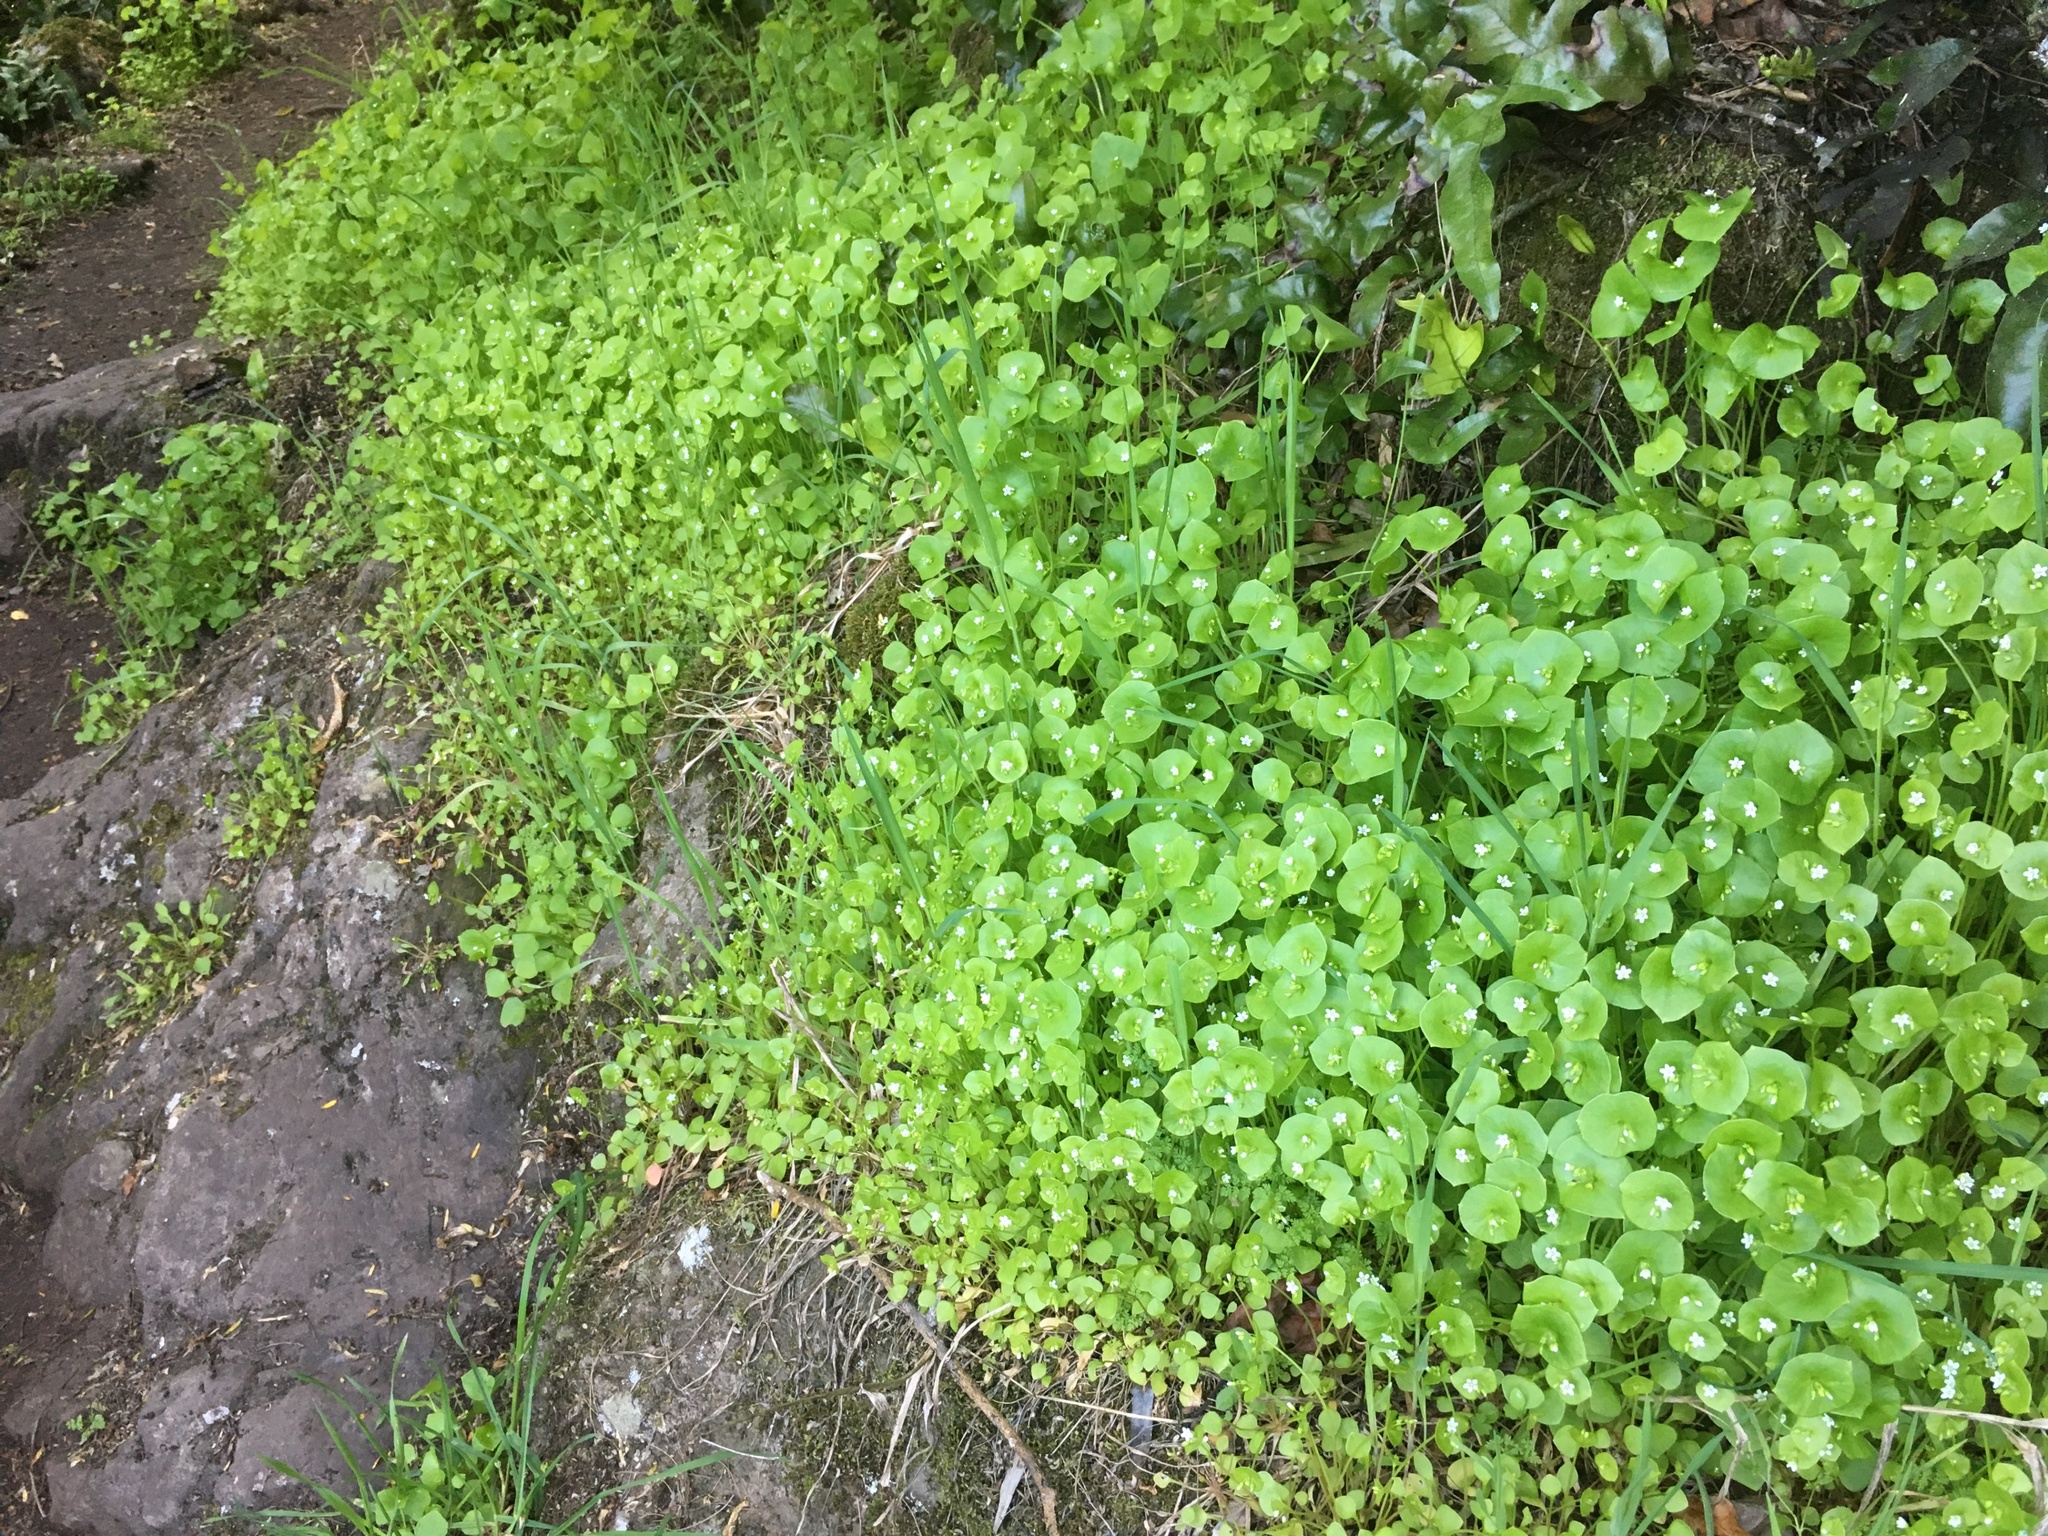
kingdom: Plantae
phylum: Tracheophyta
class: Magnoliopsida
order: Caryophyllales
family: Montiaceae
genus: Claytonia
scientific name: Claytonia perfoliata
